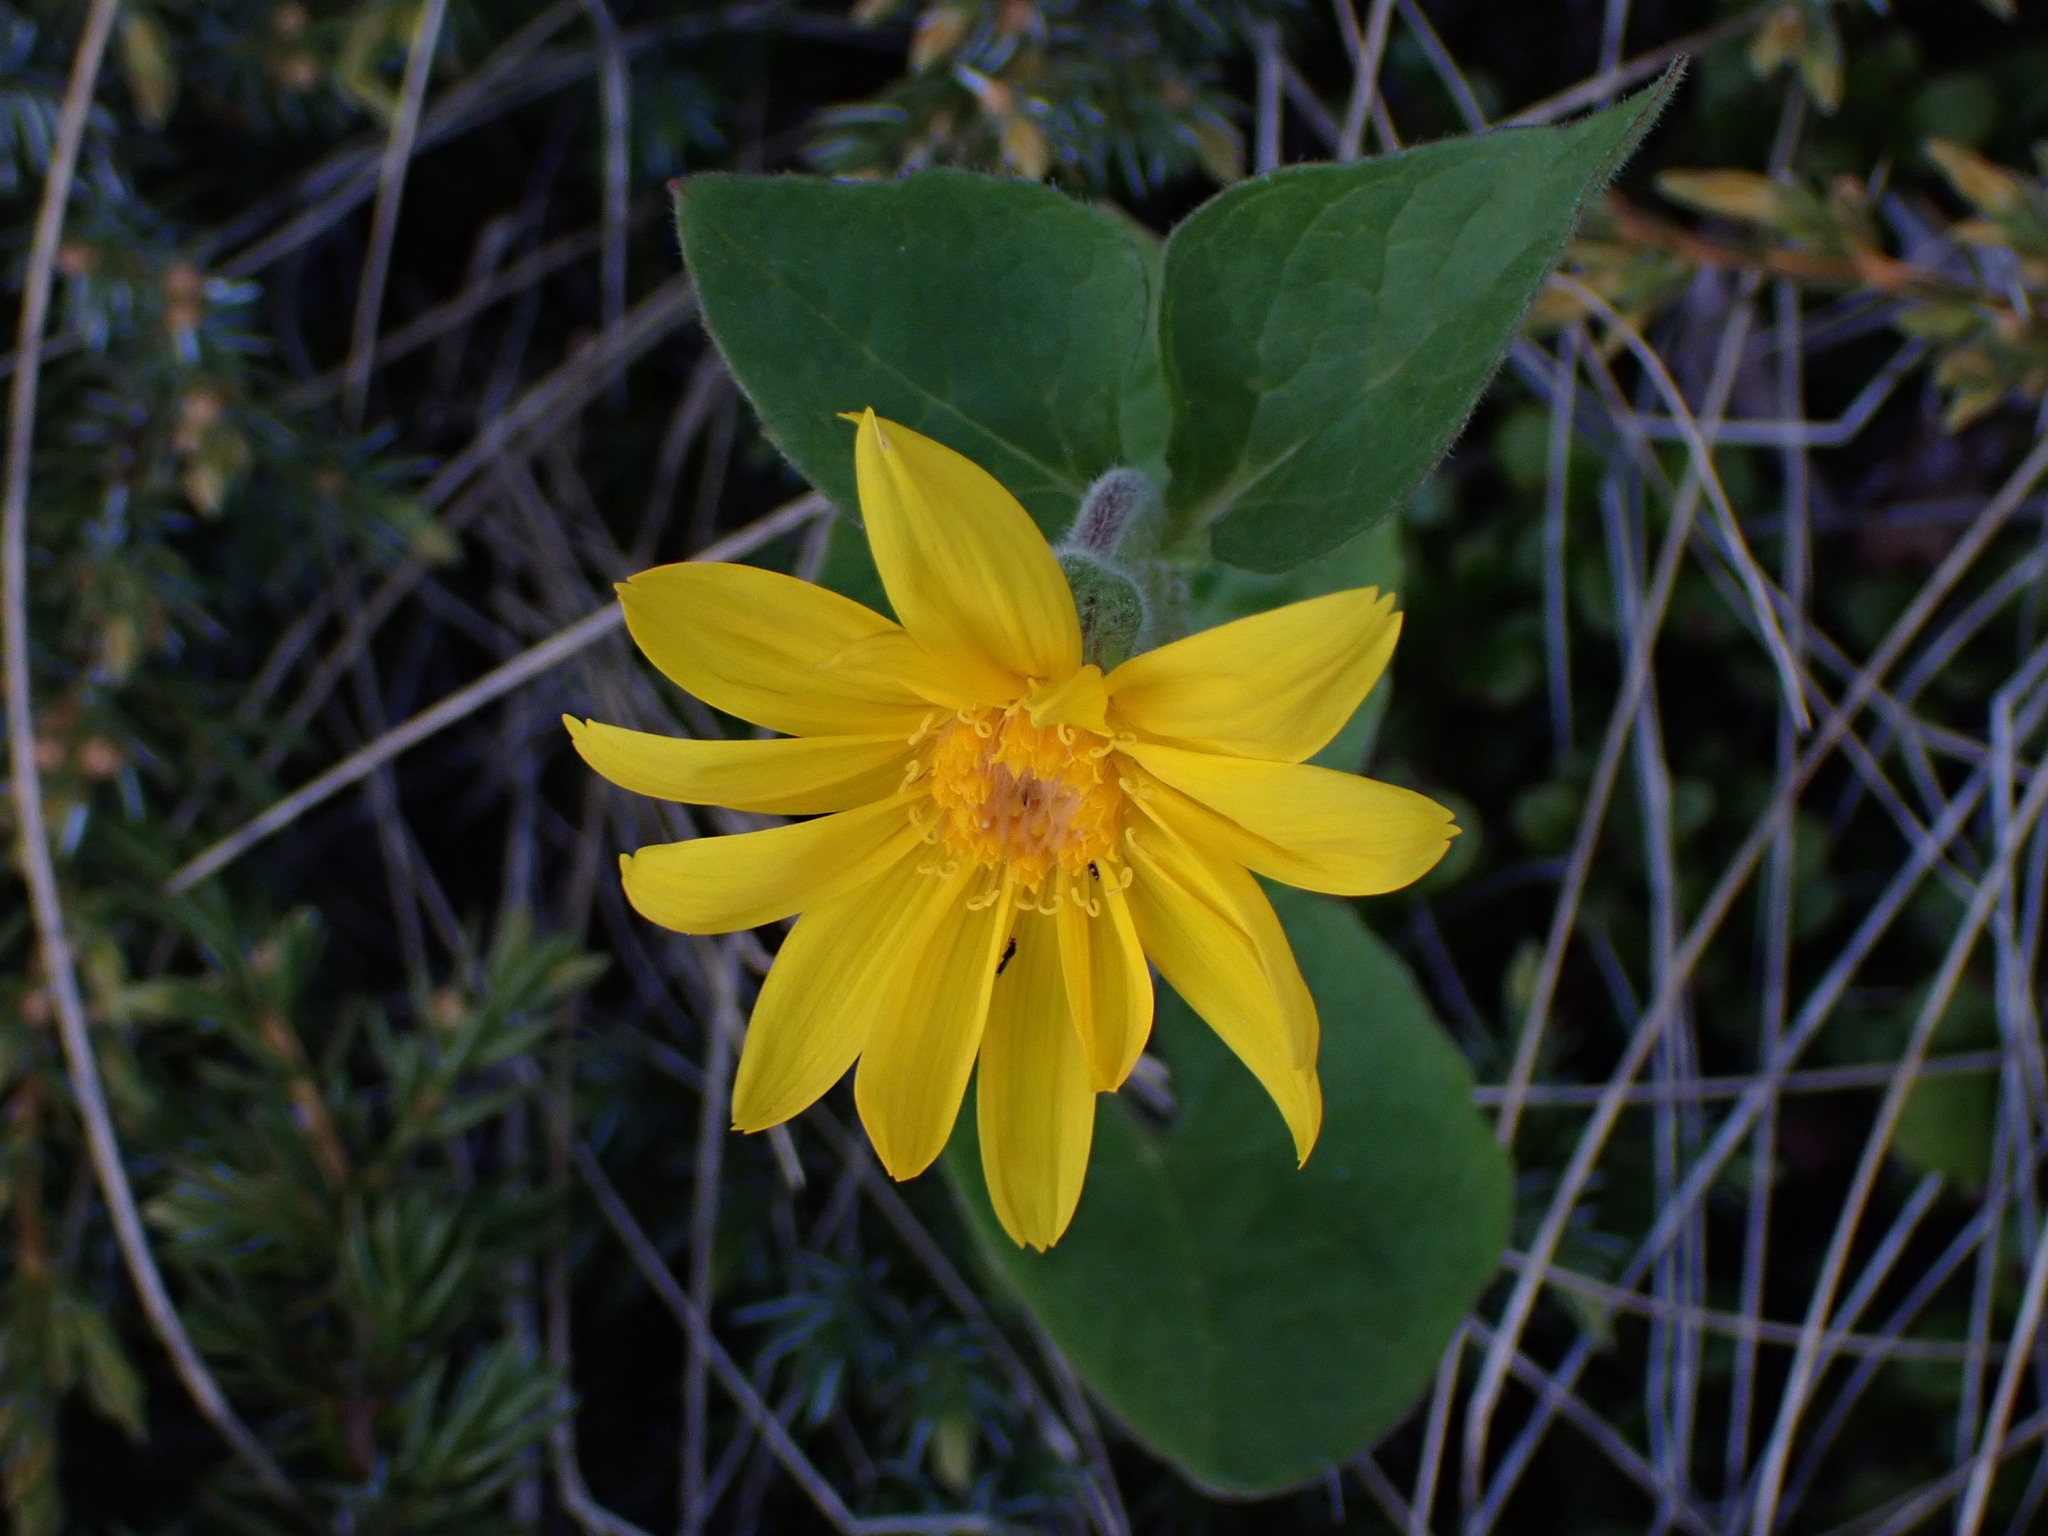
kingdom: Plantae
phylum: Tracheophyta
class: Magnoliopsida
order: Asterales
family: Asteraceae
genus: Arnica
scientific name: Arnica cordifolia
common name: Heart-leaf arnica
